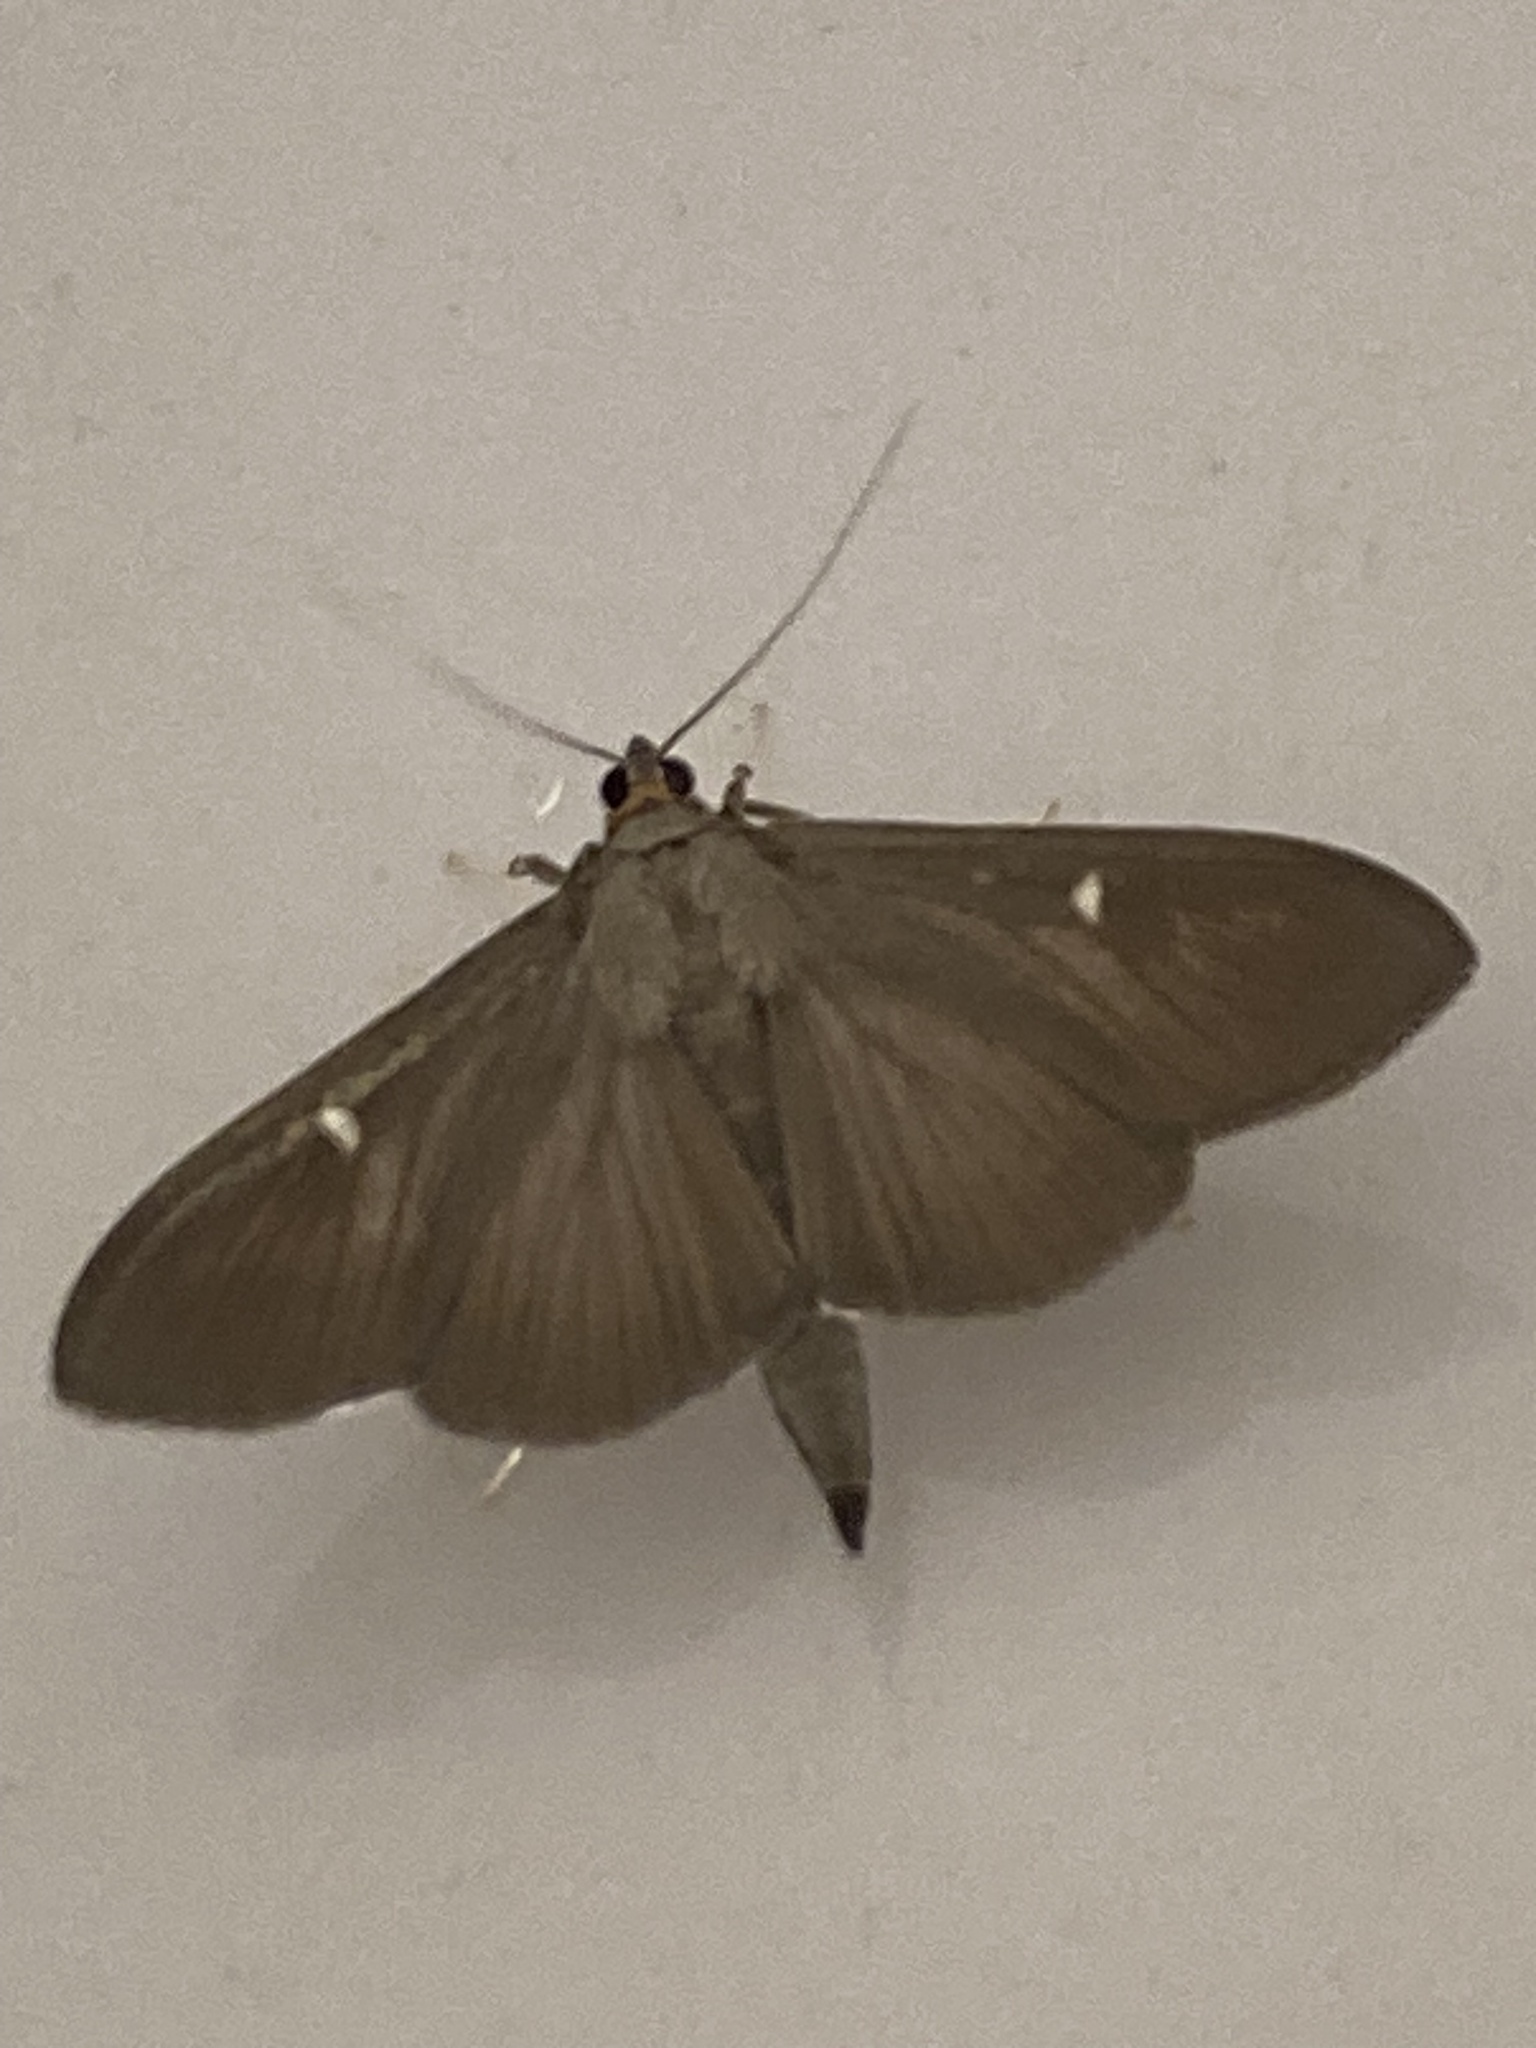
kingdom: Animalia
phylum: Arthropoda
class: Insecta
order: Lepidoptera
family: Crambidae
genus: Cydalima
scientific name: Cydalima perspectalis
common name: Box tree moth
